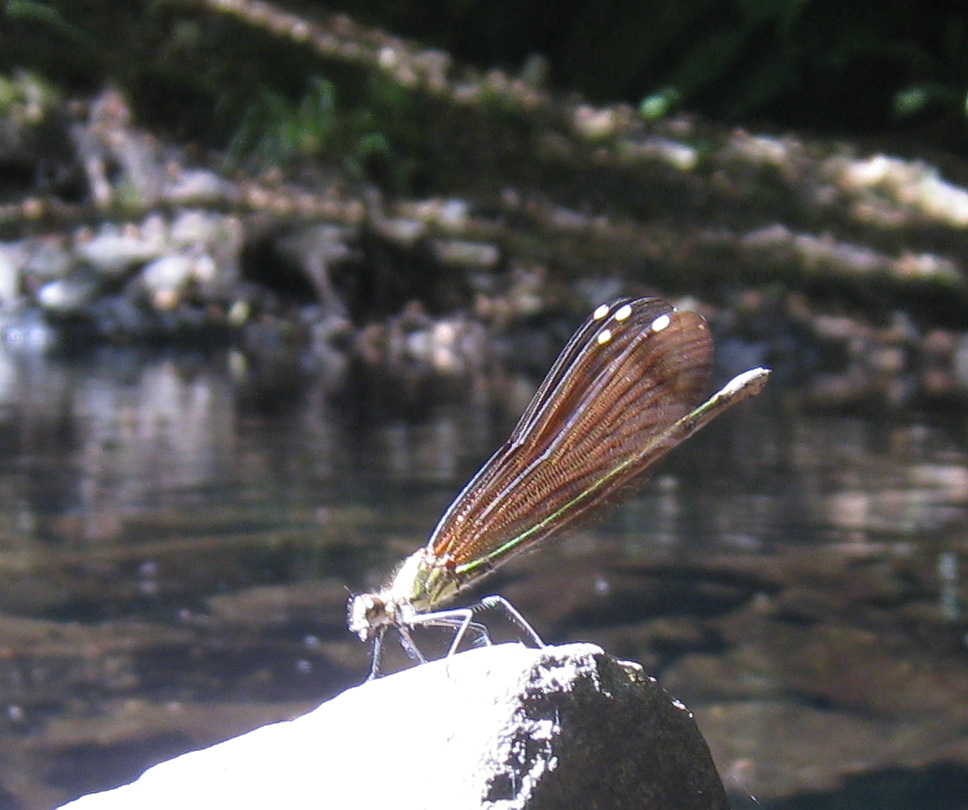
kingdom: Animalia
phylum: Arthropoda
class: Insecta
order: Odonata
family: Calopterygidae
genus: Calopteryx
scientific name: Calopteryx haemorrhoidalis
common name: Copper demoiselle
